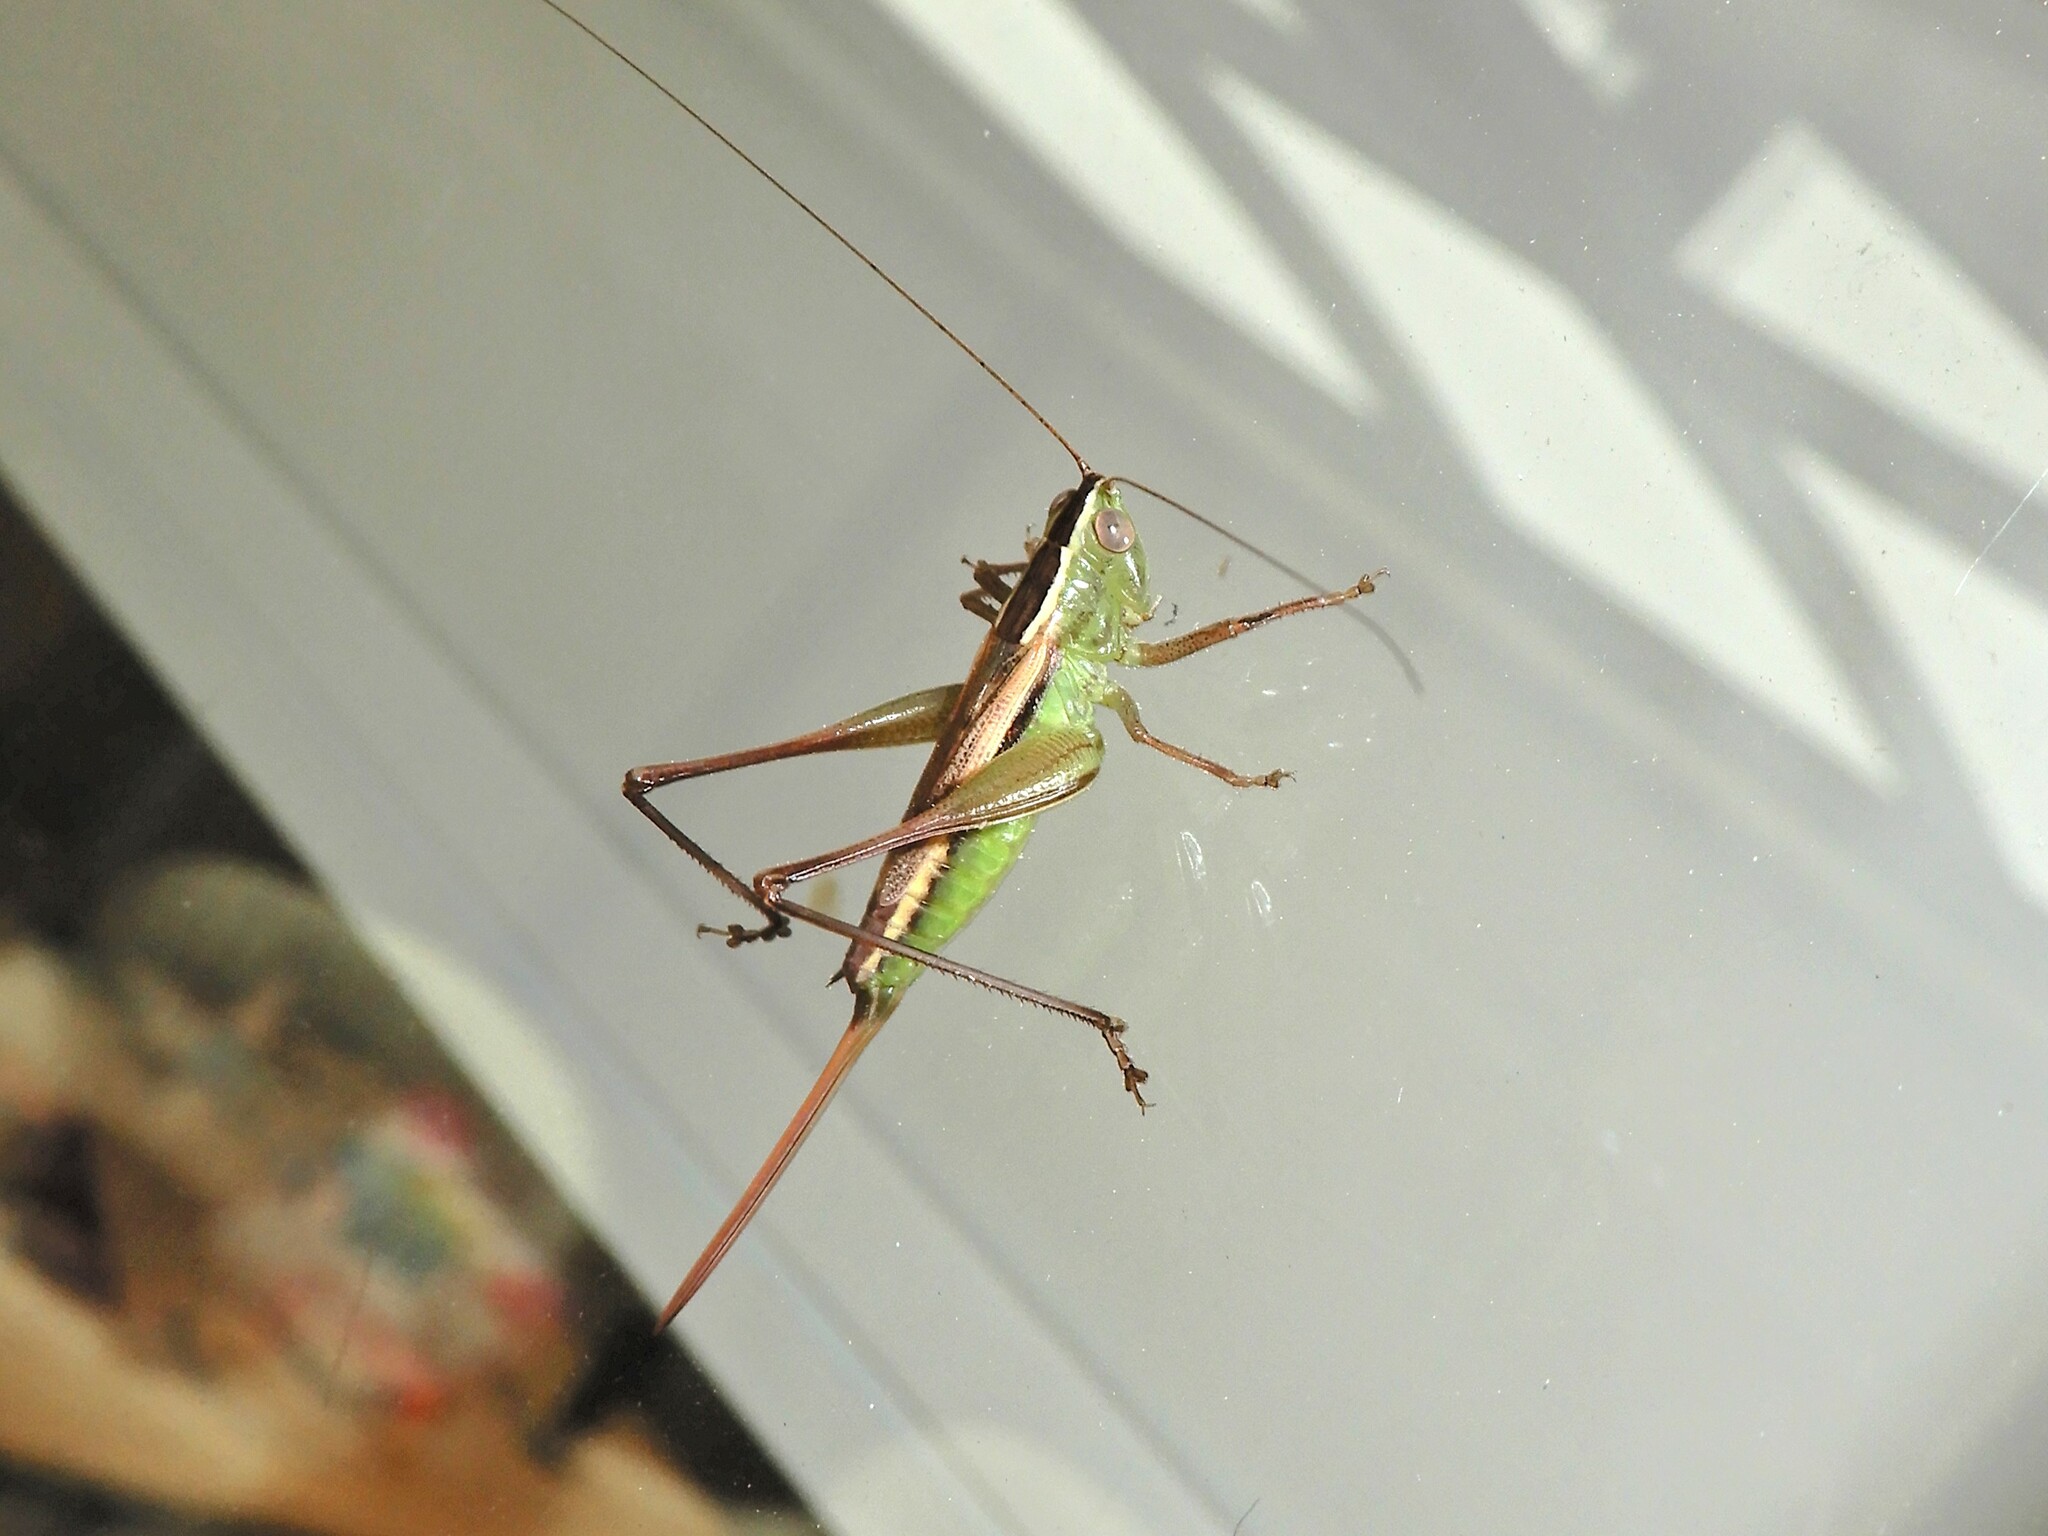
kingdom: Animalia
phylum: Arthropoda
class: Insecta
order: Orthoptera
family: Tettigoniidae
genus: Conocephalus
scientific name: Conocephalus albescens
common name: Whitish meadow katydid
